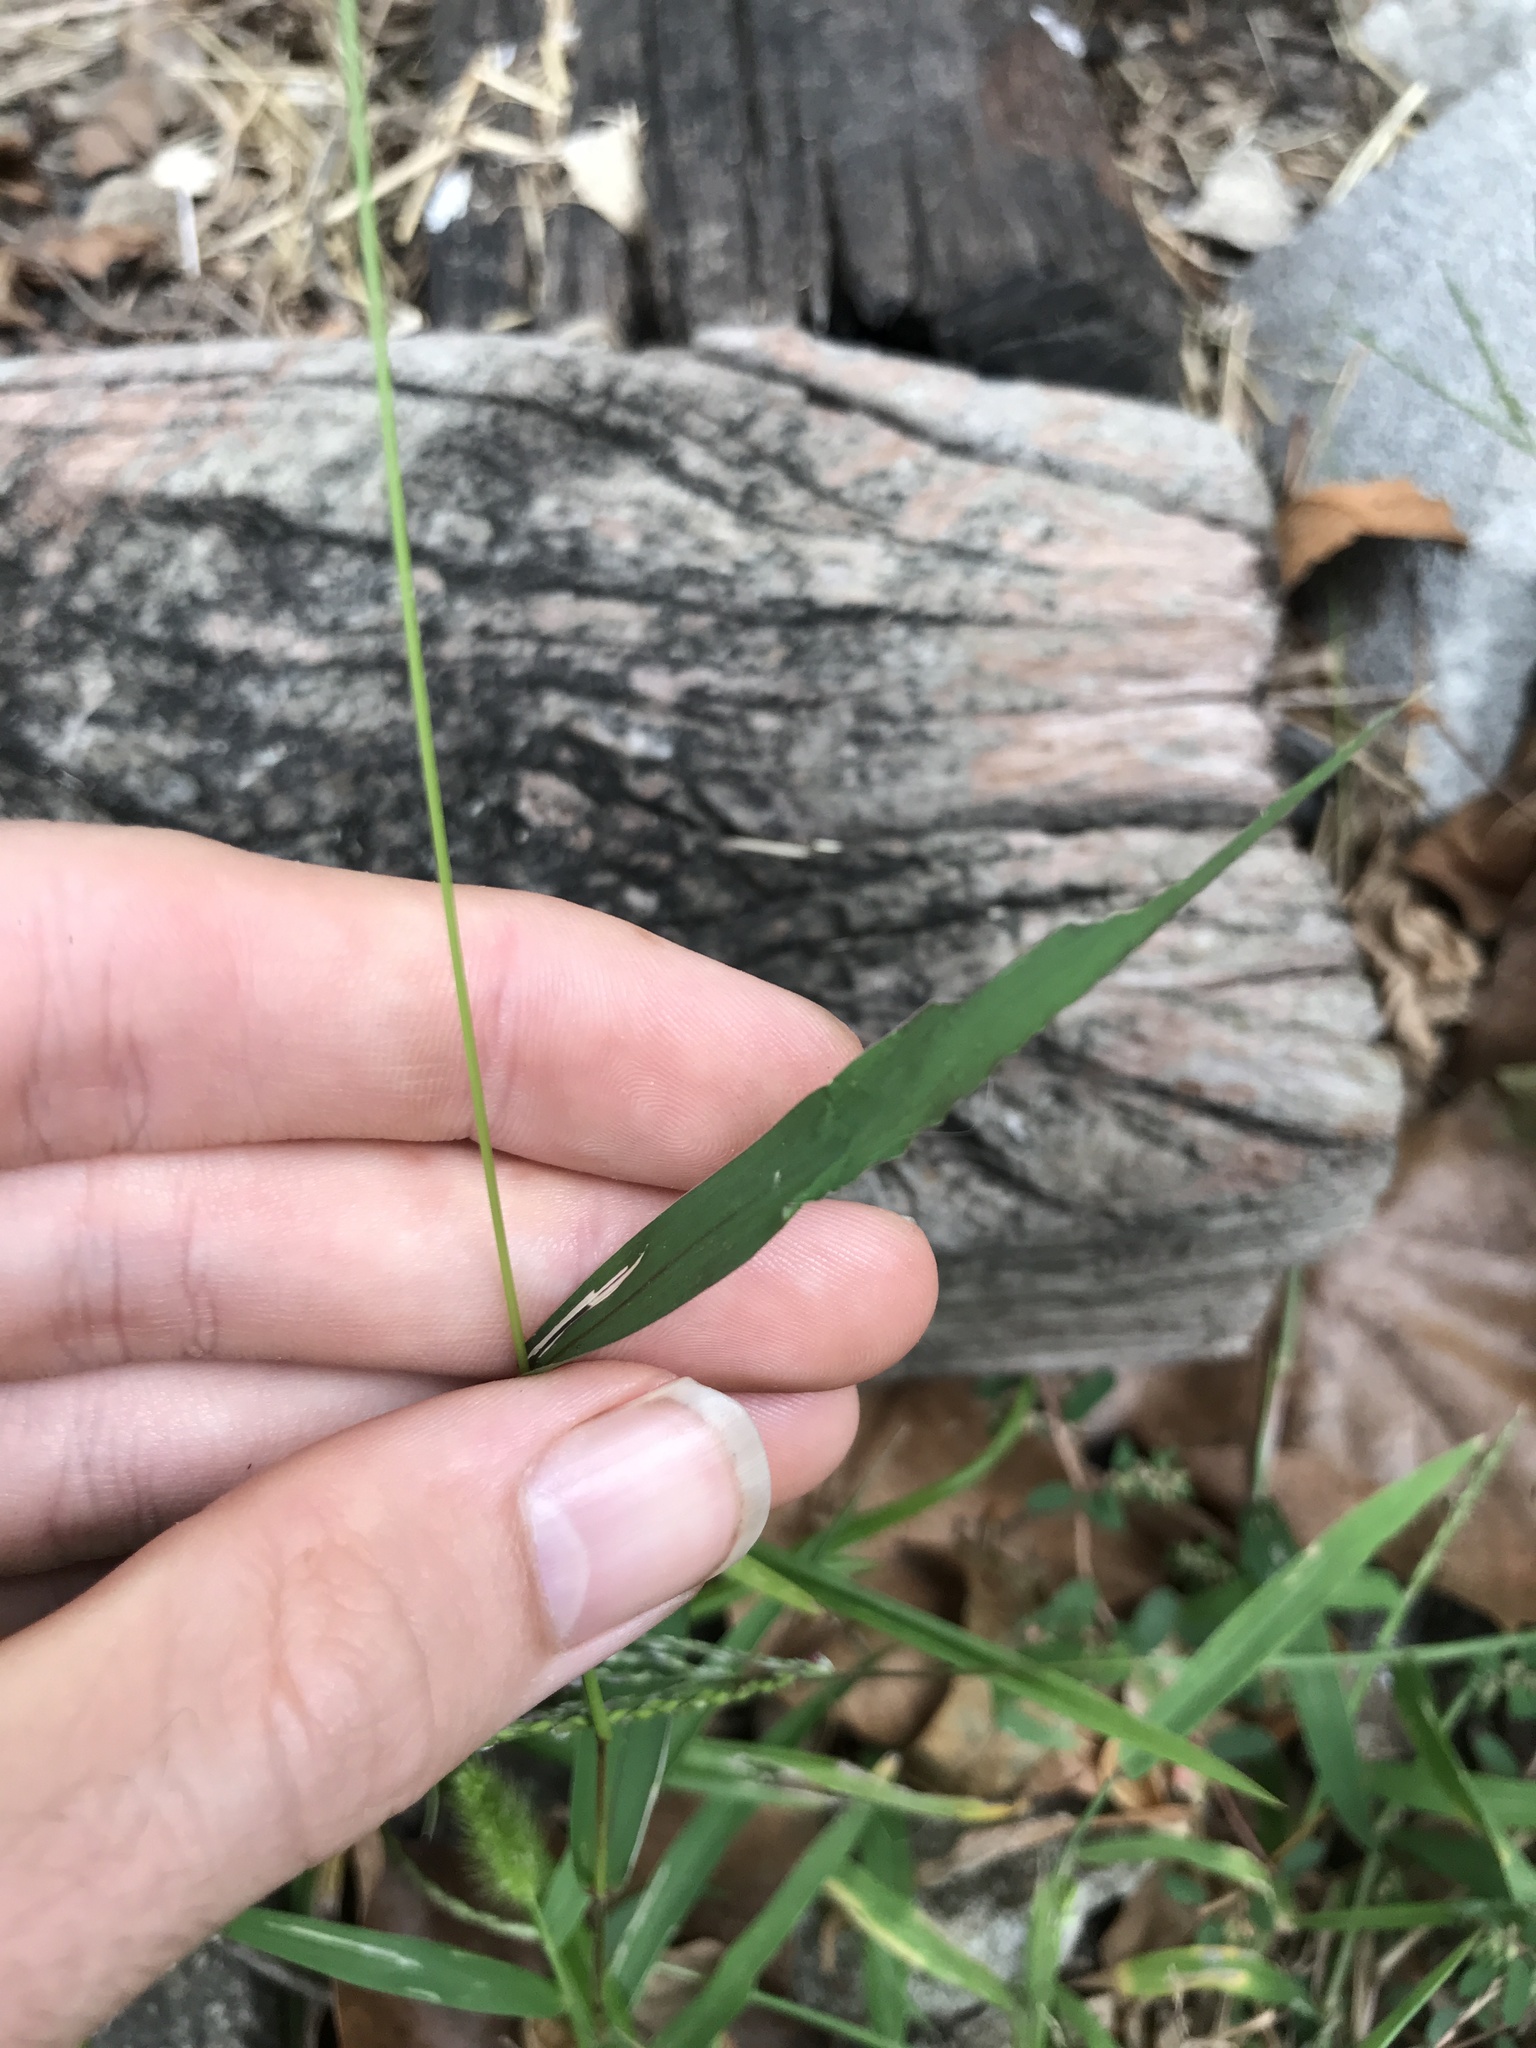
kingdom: Plantae
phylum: Tracheophyta
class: Liliopsida
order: Poales
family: Poaceae
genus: Setaria
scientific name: Setaria viridis
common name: Green bristlegrass
